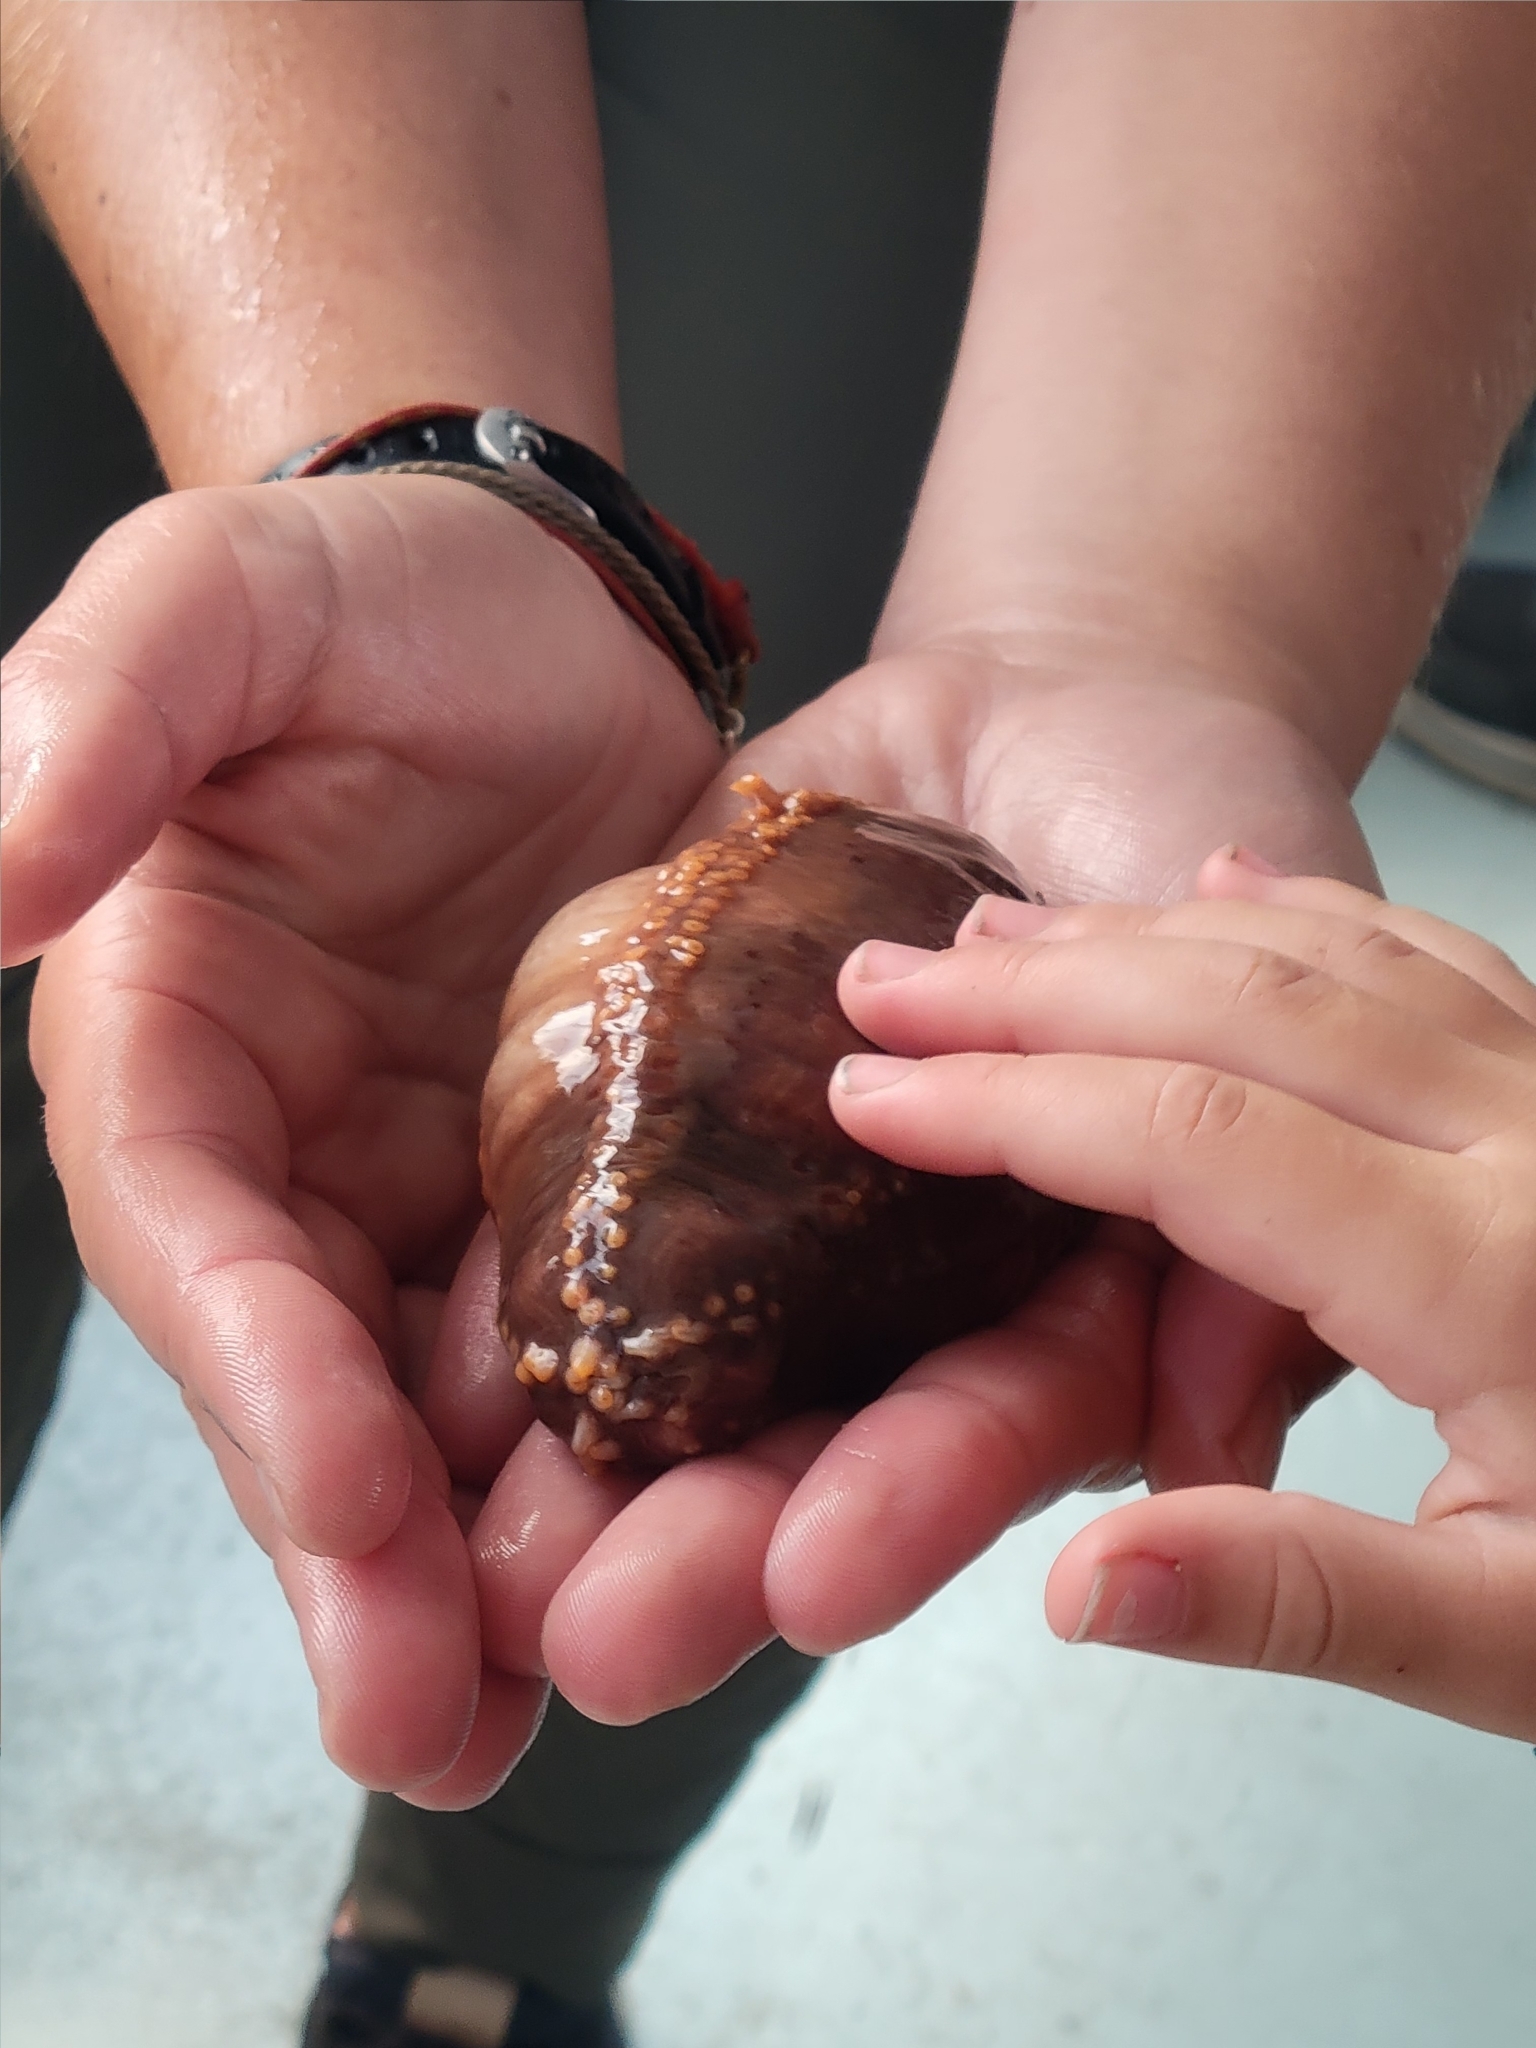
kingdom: Animalia
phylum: Echinodermata
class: Holothuroidea
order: Dendrochirotida
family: Cucumariidae
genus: Cucumaria
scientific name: Cucumaria frondosa
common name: Orange-footed sea cucumber
